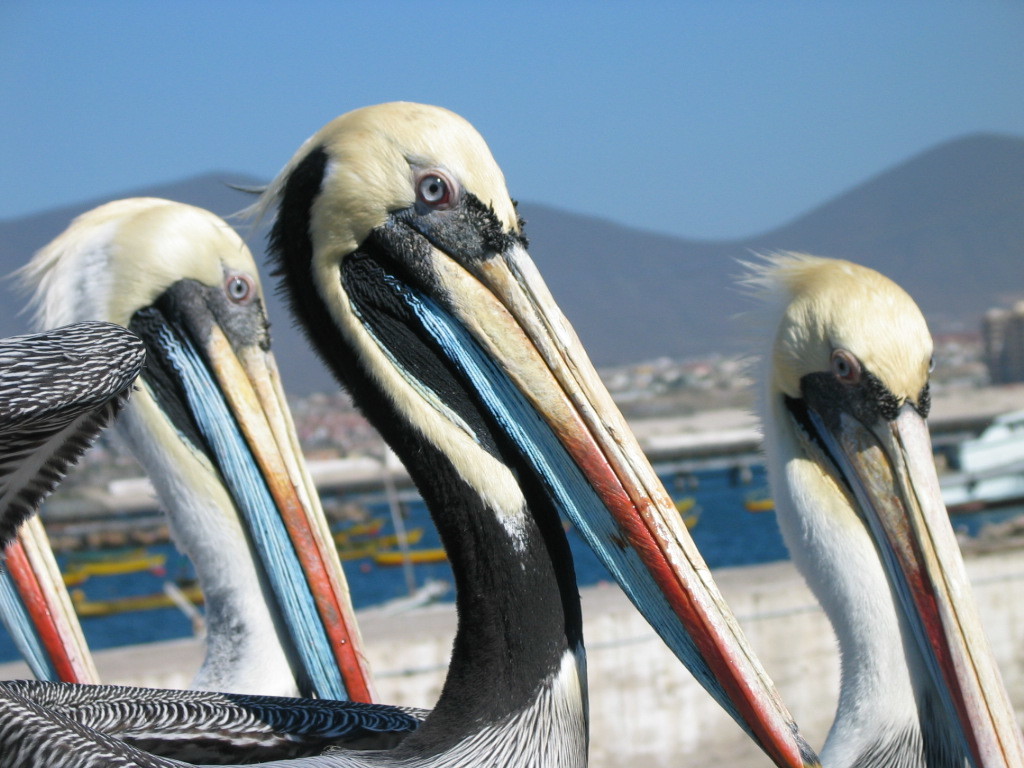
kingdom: Animalia
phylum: Chordata
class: Aves
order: Pelecaniformes
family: Pelecanidae
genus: Pelecanus
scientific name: Pelecanus thagus
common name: Peruvian pelican
